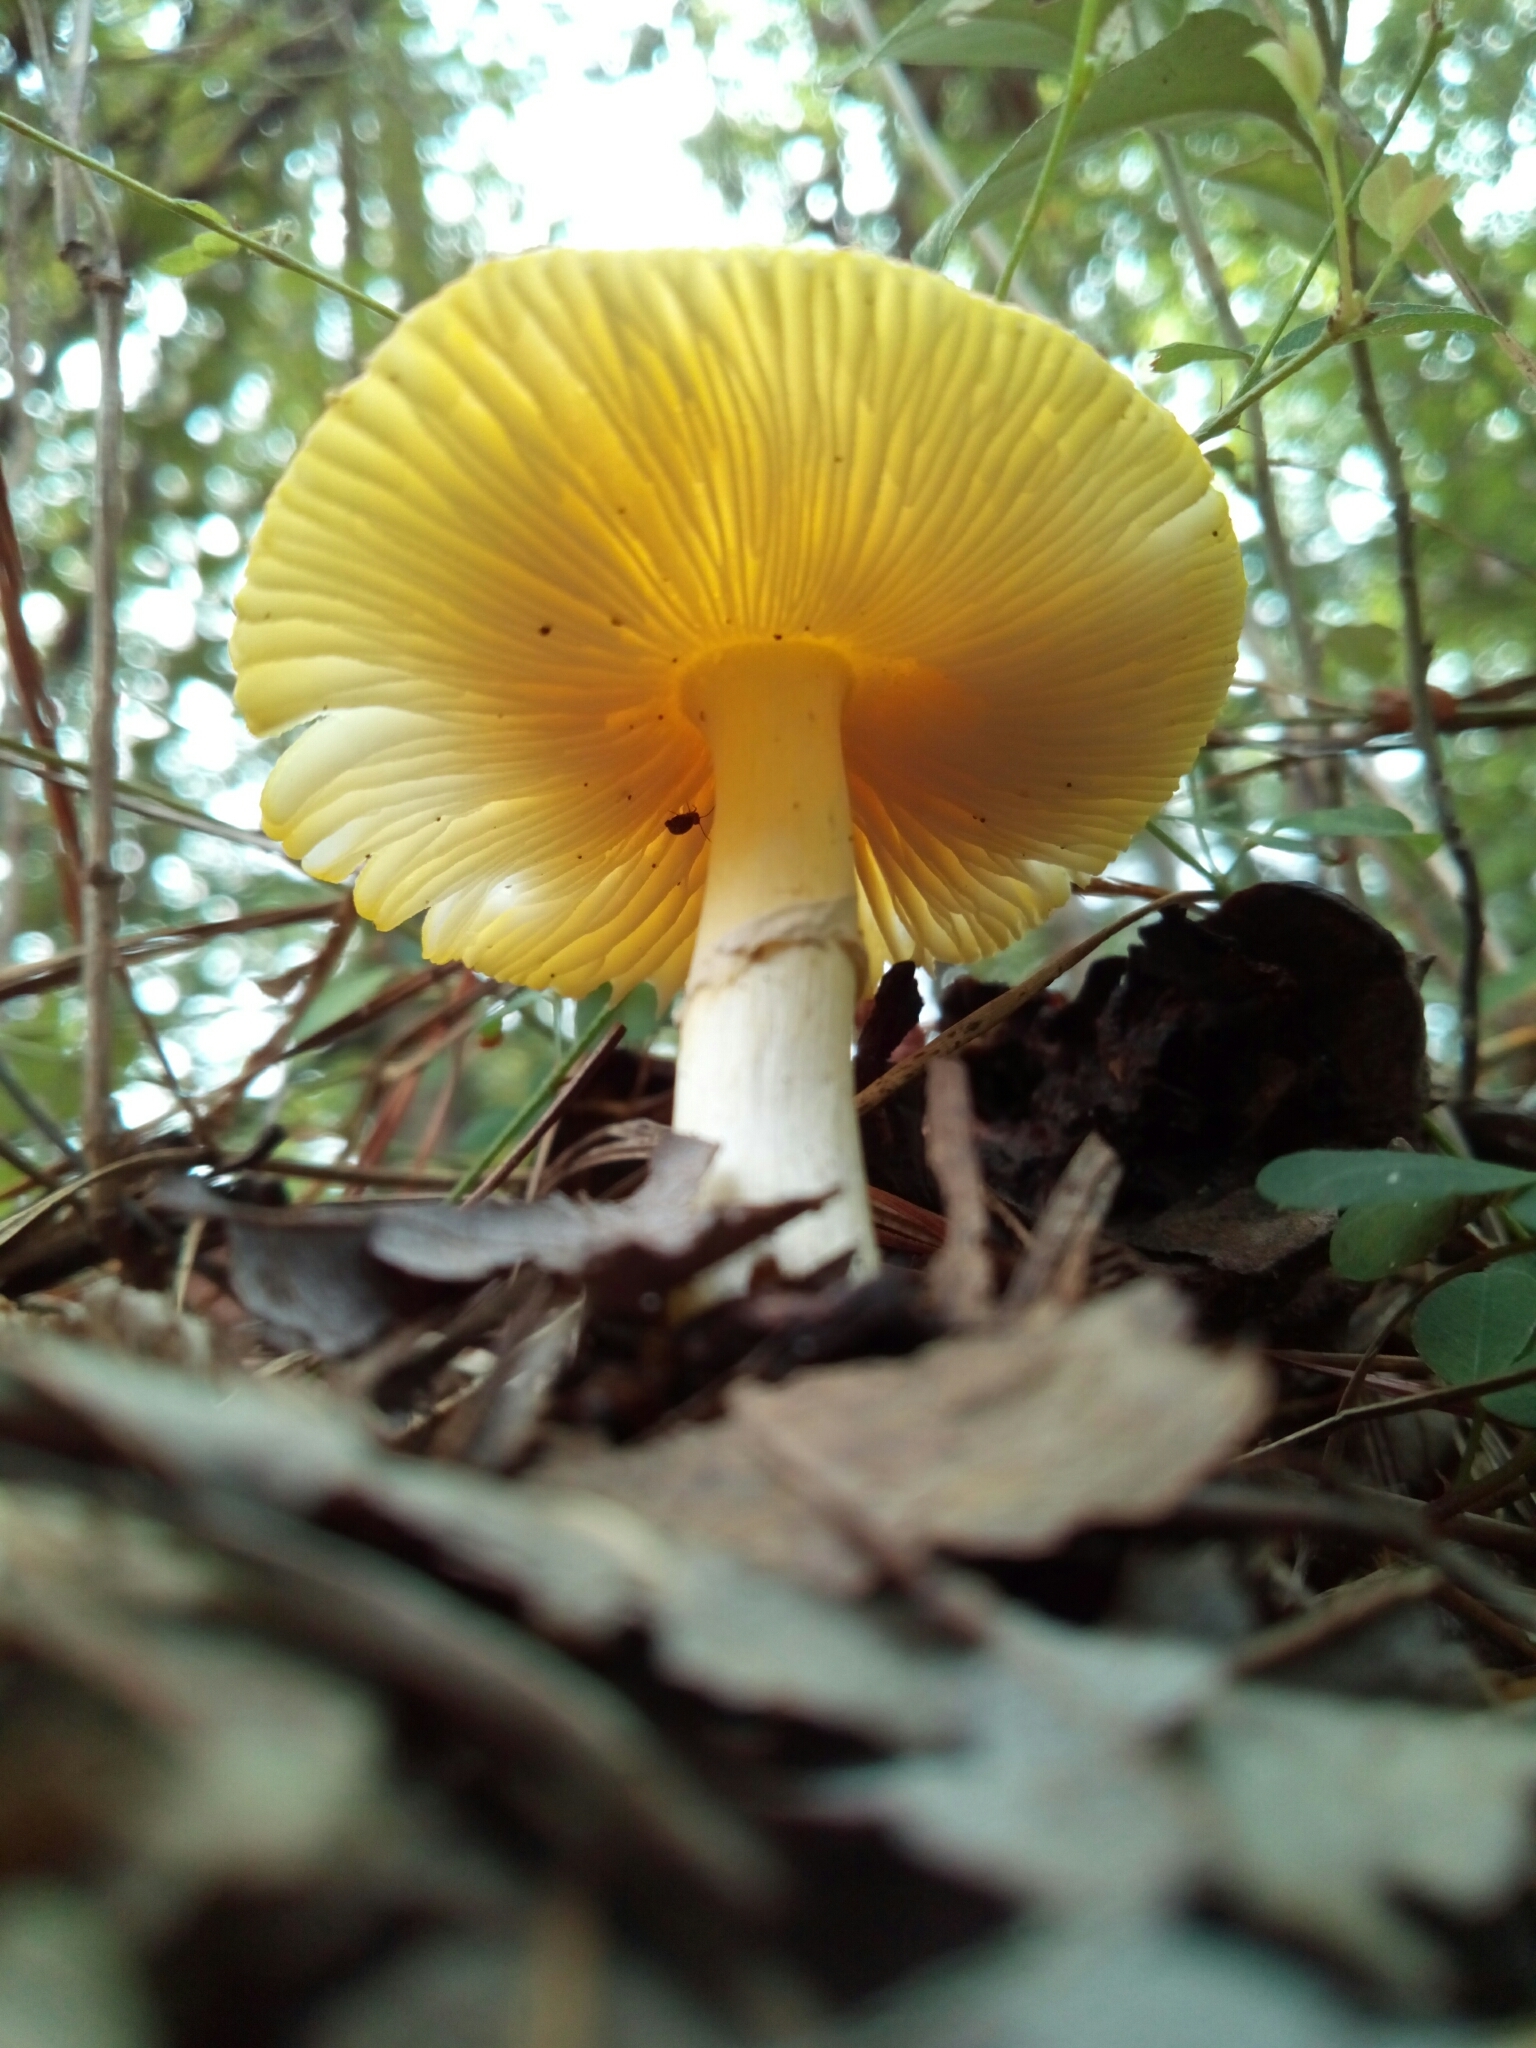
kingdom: Fungi
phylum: Basidiomycota
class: Agaricomycetes
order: Agaricales
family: Amanitaceae
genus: Amanita
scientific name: Amanita jacksonii
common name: Jackson's slender caesar
